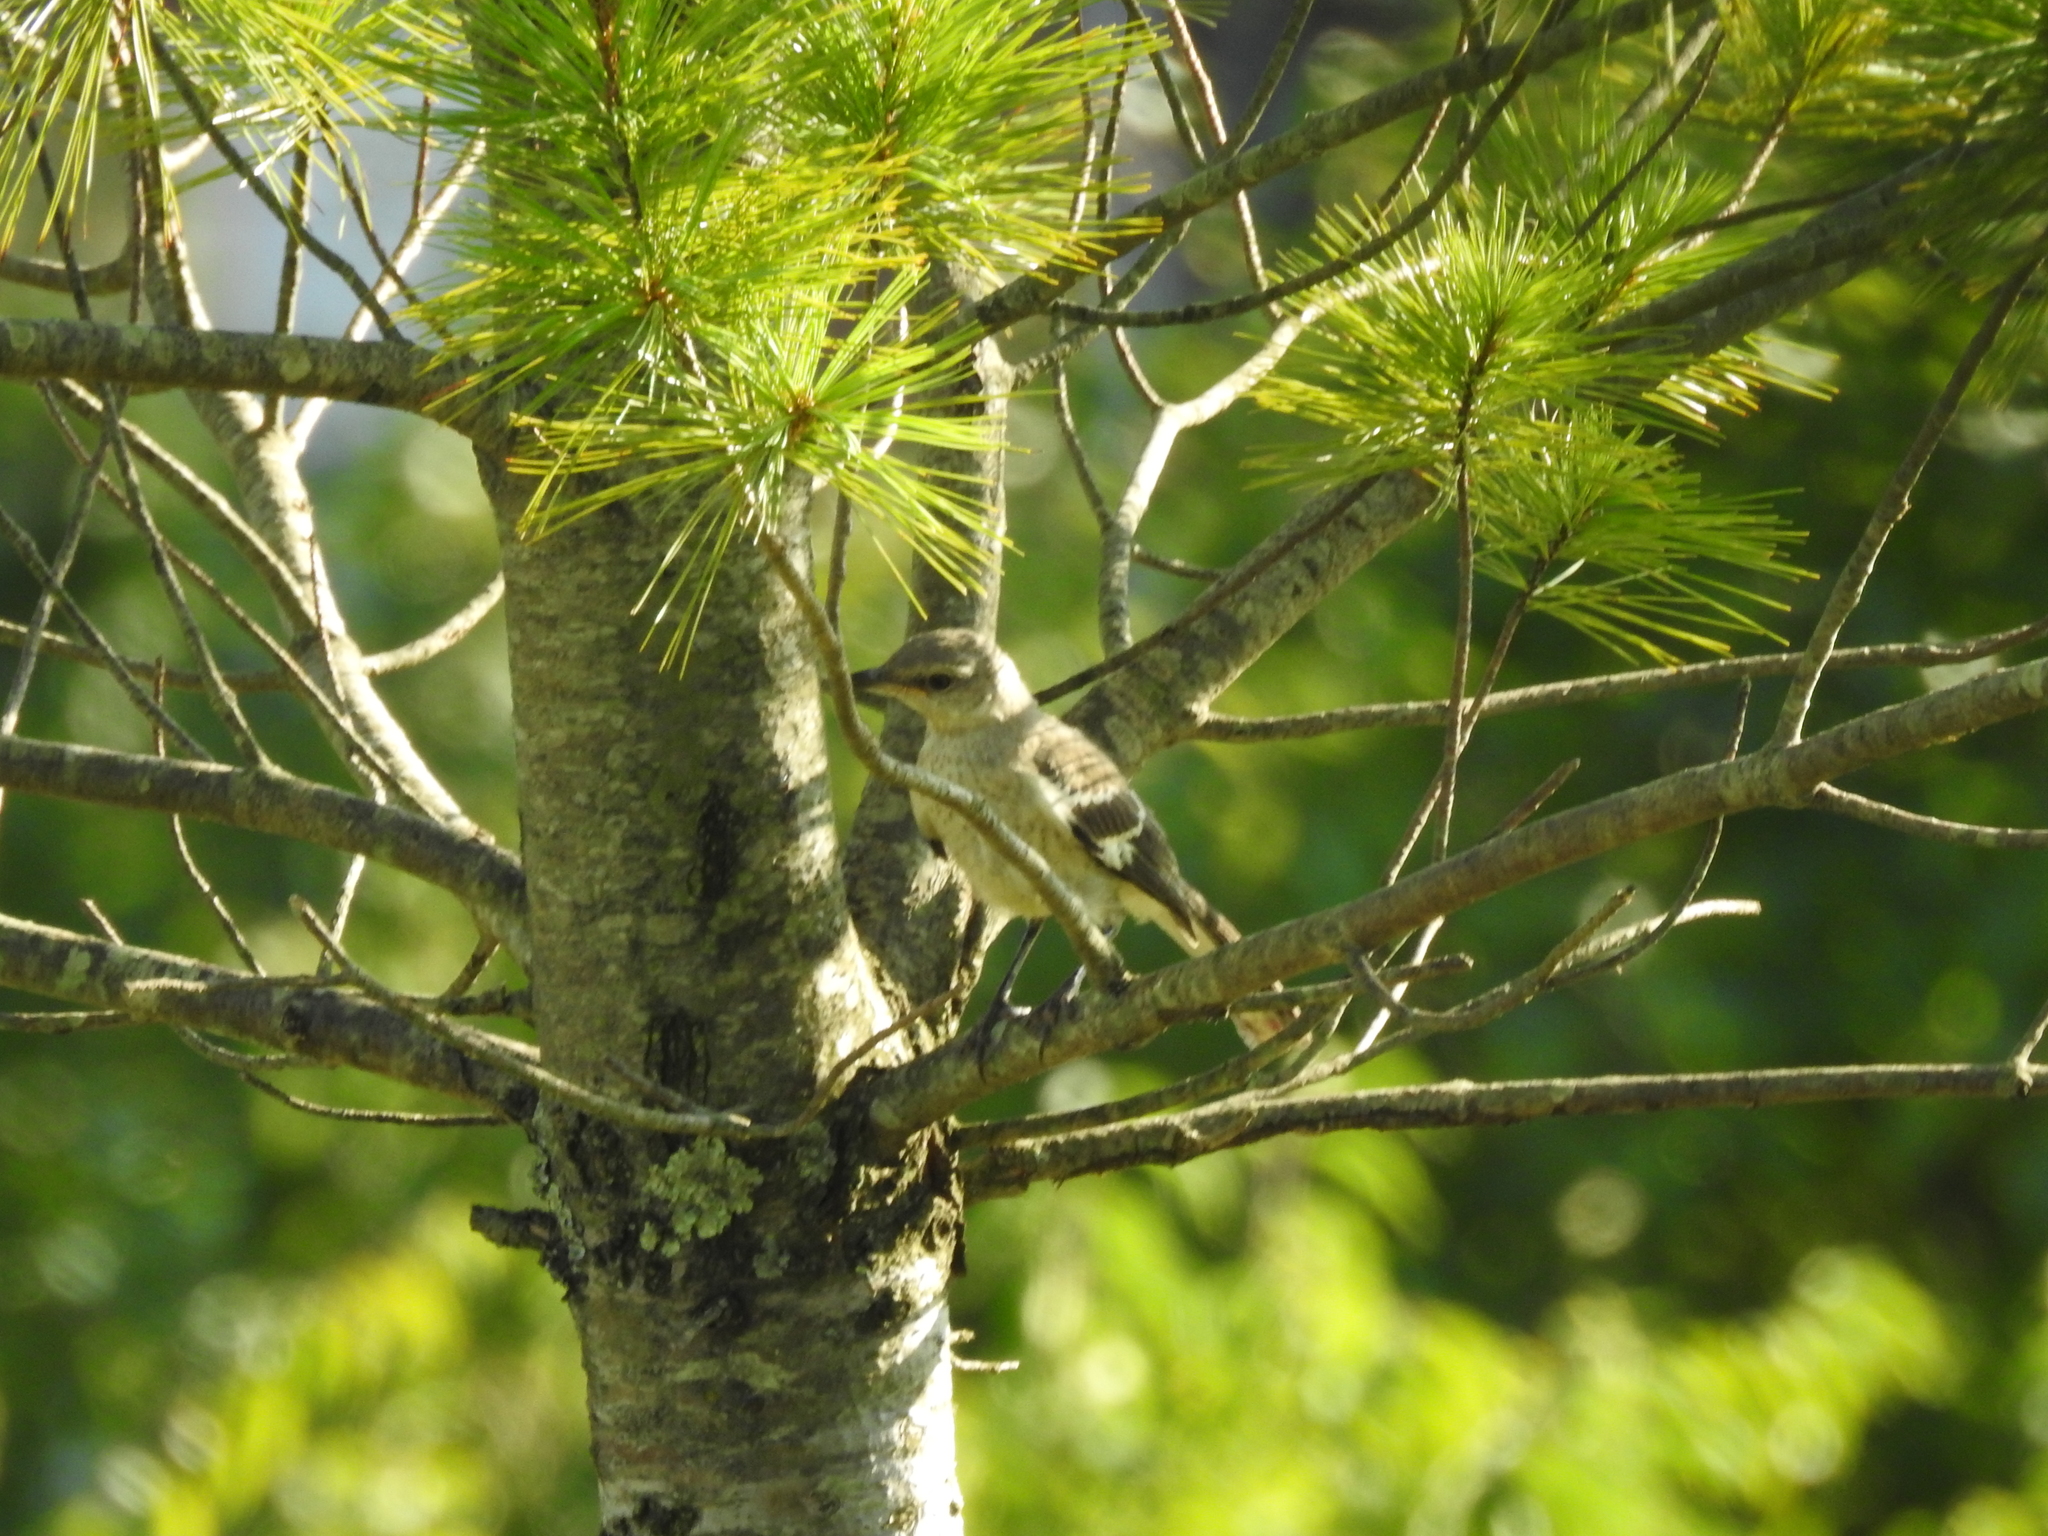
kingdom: Animalia
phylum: Chordata
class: Aves
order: Passeriformes
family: Mimidae
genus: Mimus
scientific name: Mimus polyglottos
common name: Northern mockingbird
